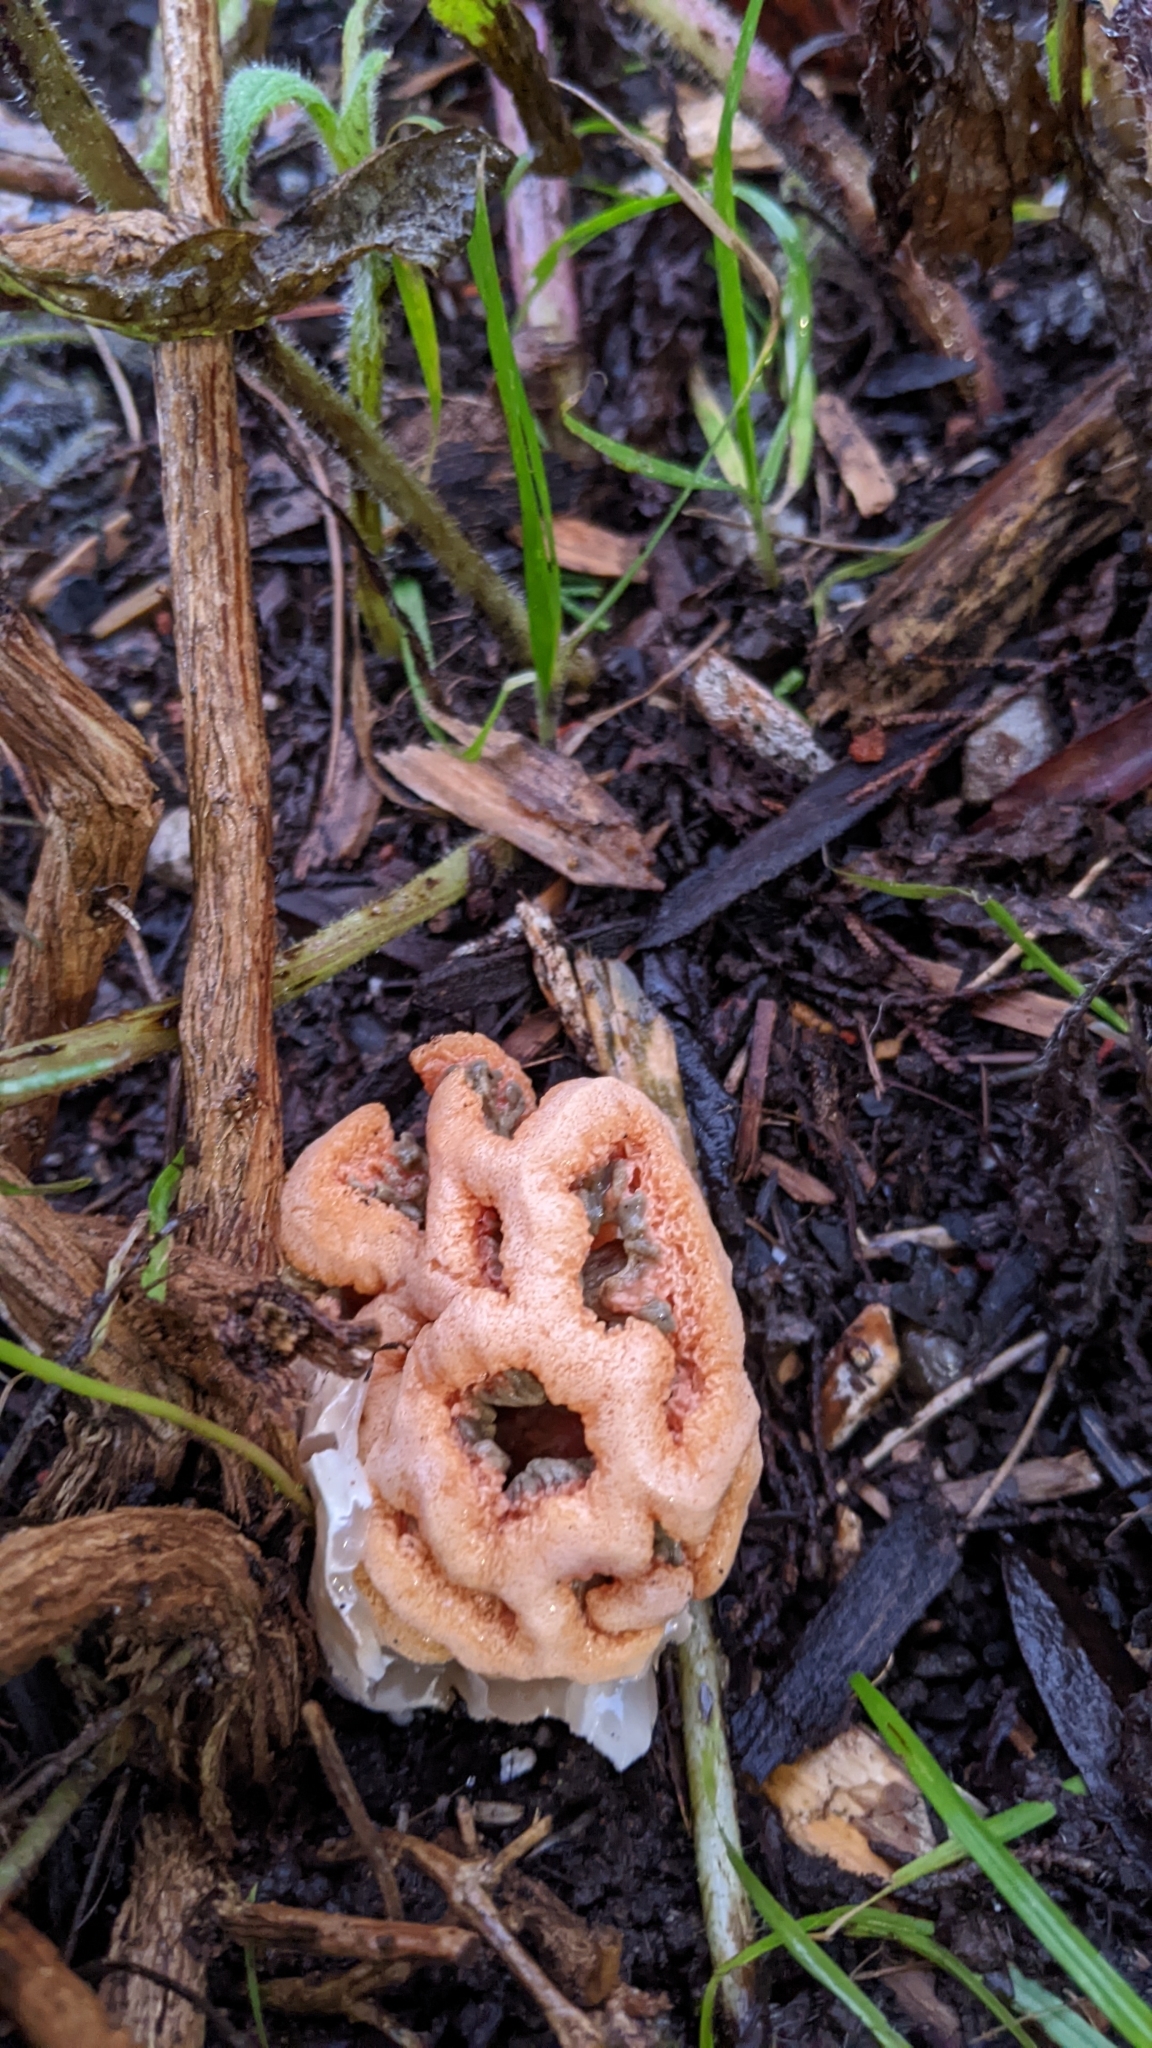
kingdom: Fungi
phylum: Basidiomycota
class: Agaricomycetes
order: Phallales
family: Phallaceae
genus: Clathrus
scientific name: Clathrus ruber
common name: Red cage
